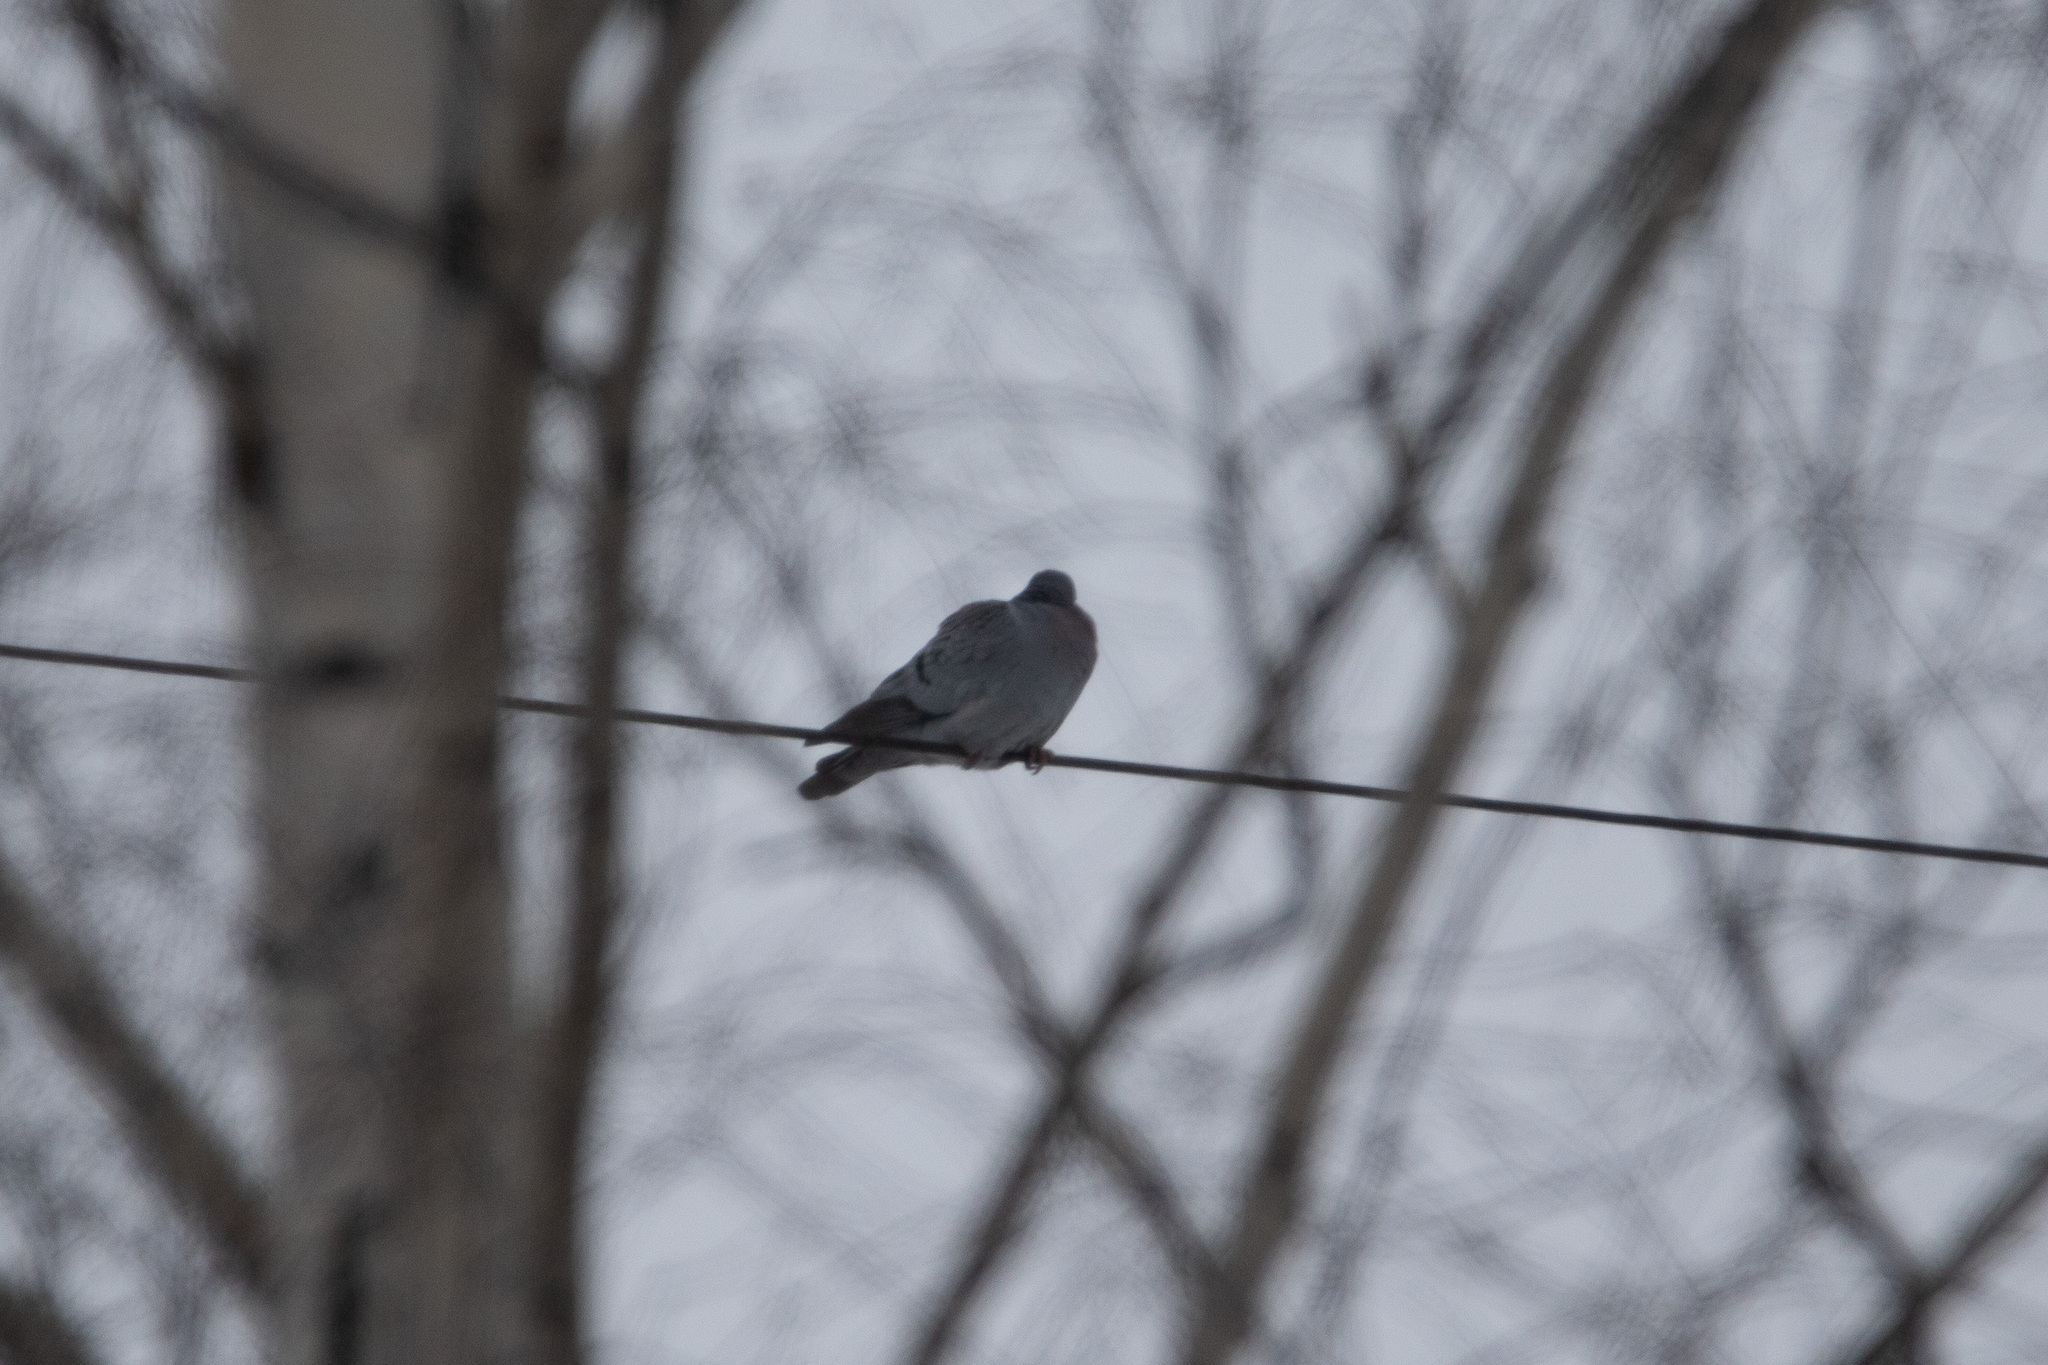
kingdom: Animalia
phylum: Chordata
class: Aves
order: Columbiformes
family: Columbidae
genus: Columba
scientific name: Columba oenas
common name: Stock dove
